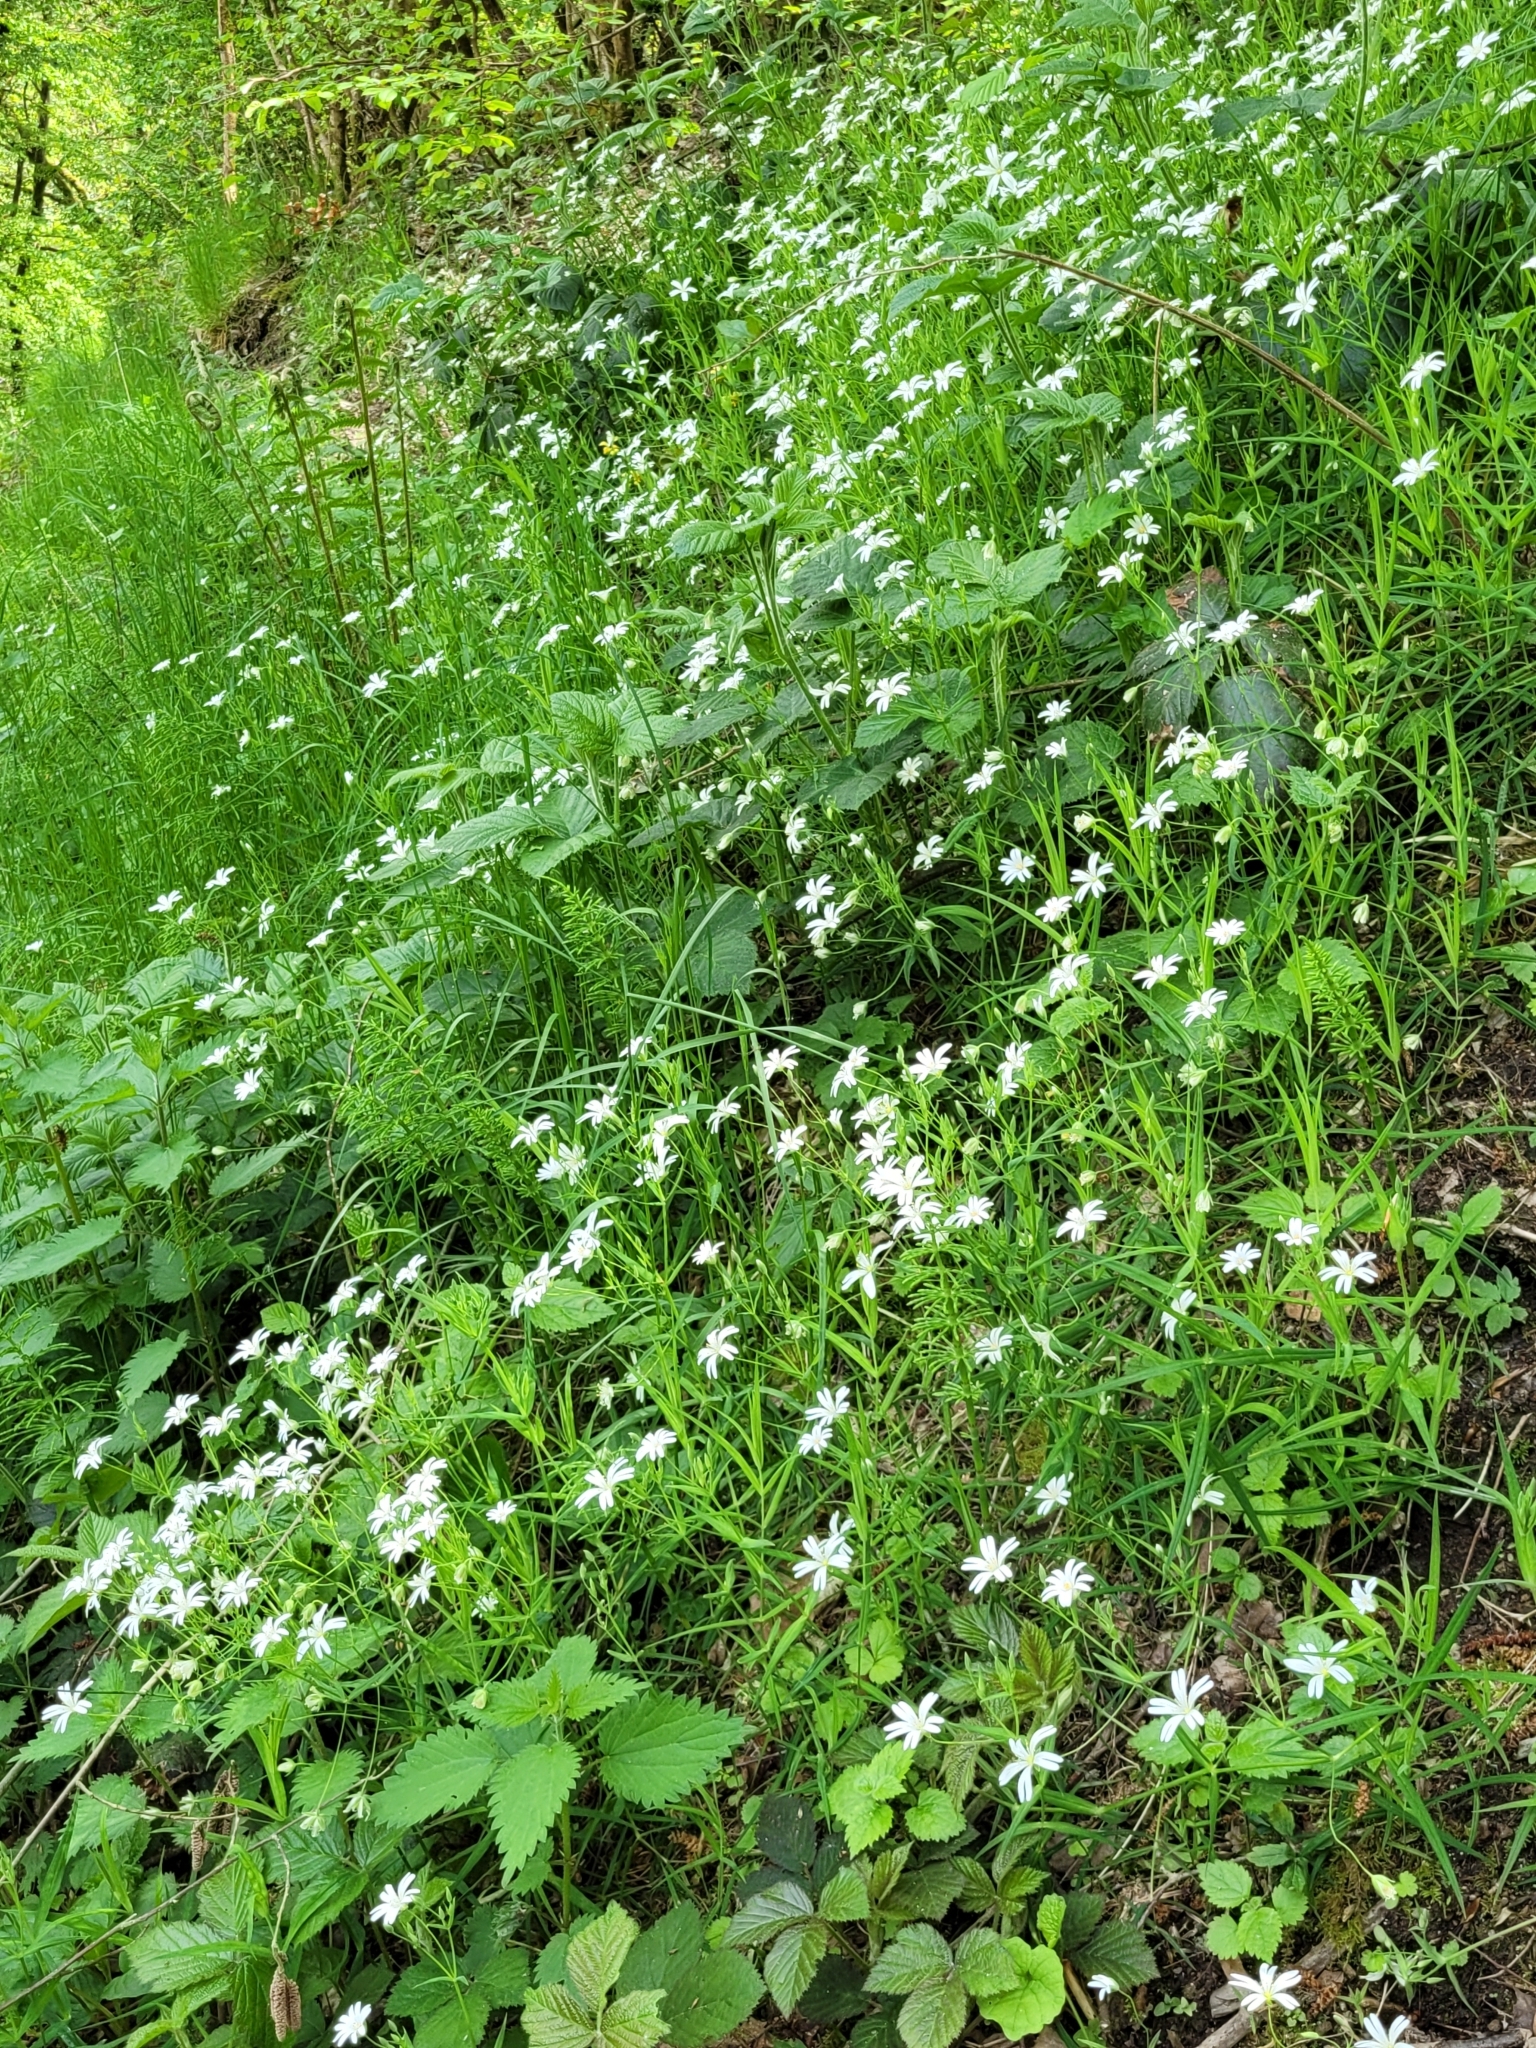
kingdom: Plantae
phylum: Tracheophyta
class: Magnoliopsida
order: Caryophyllales
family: Caryophyllaceae
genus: Rabelera
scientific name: Rabelera holostea
